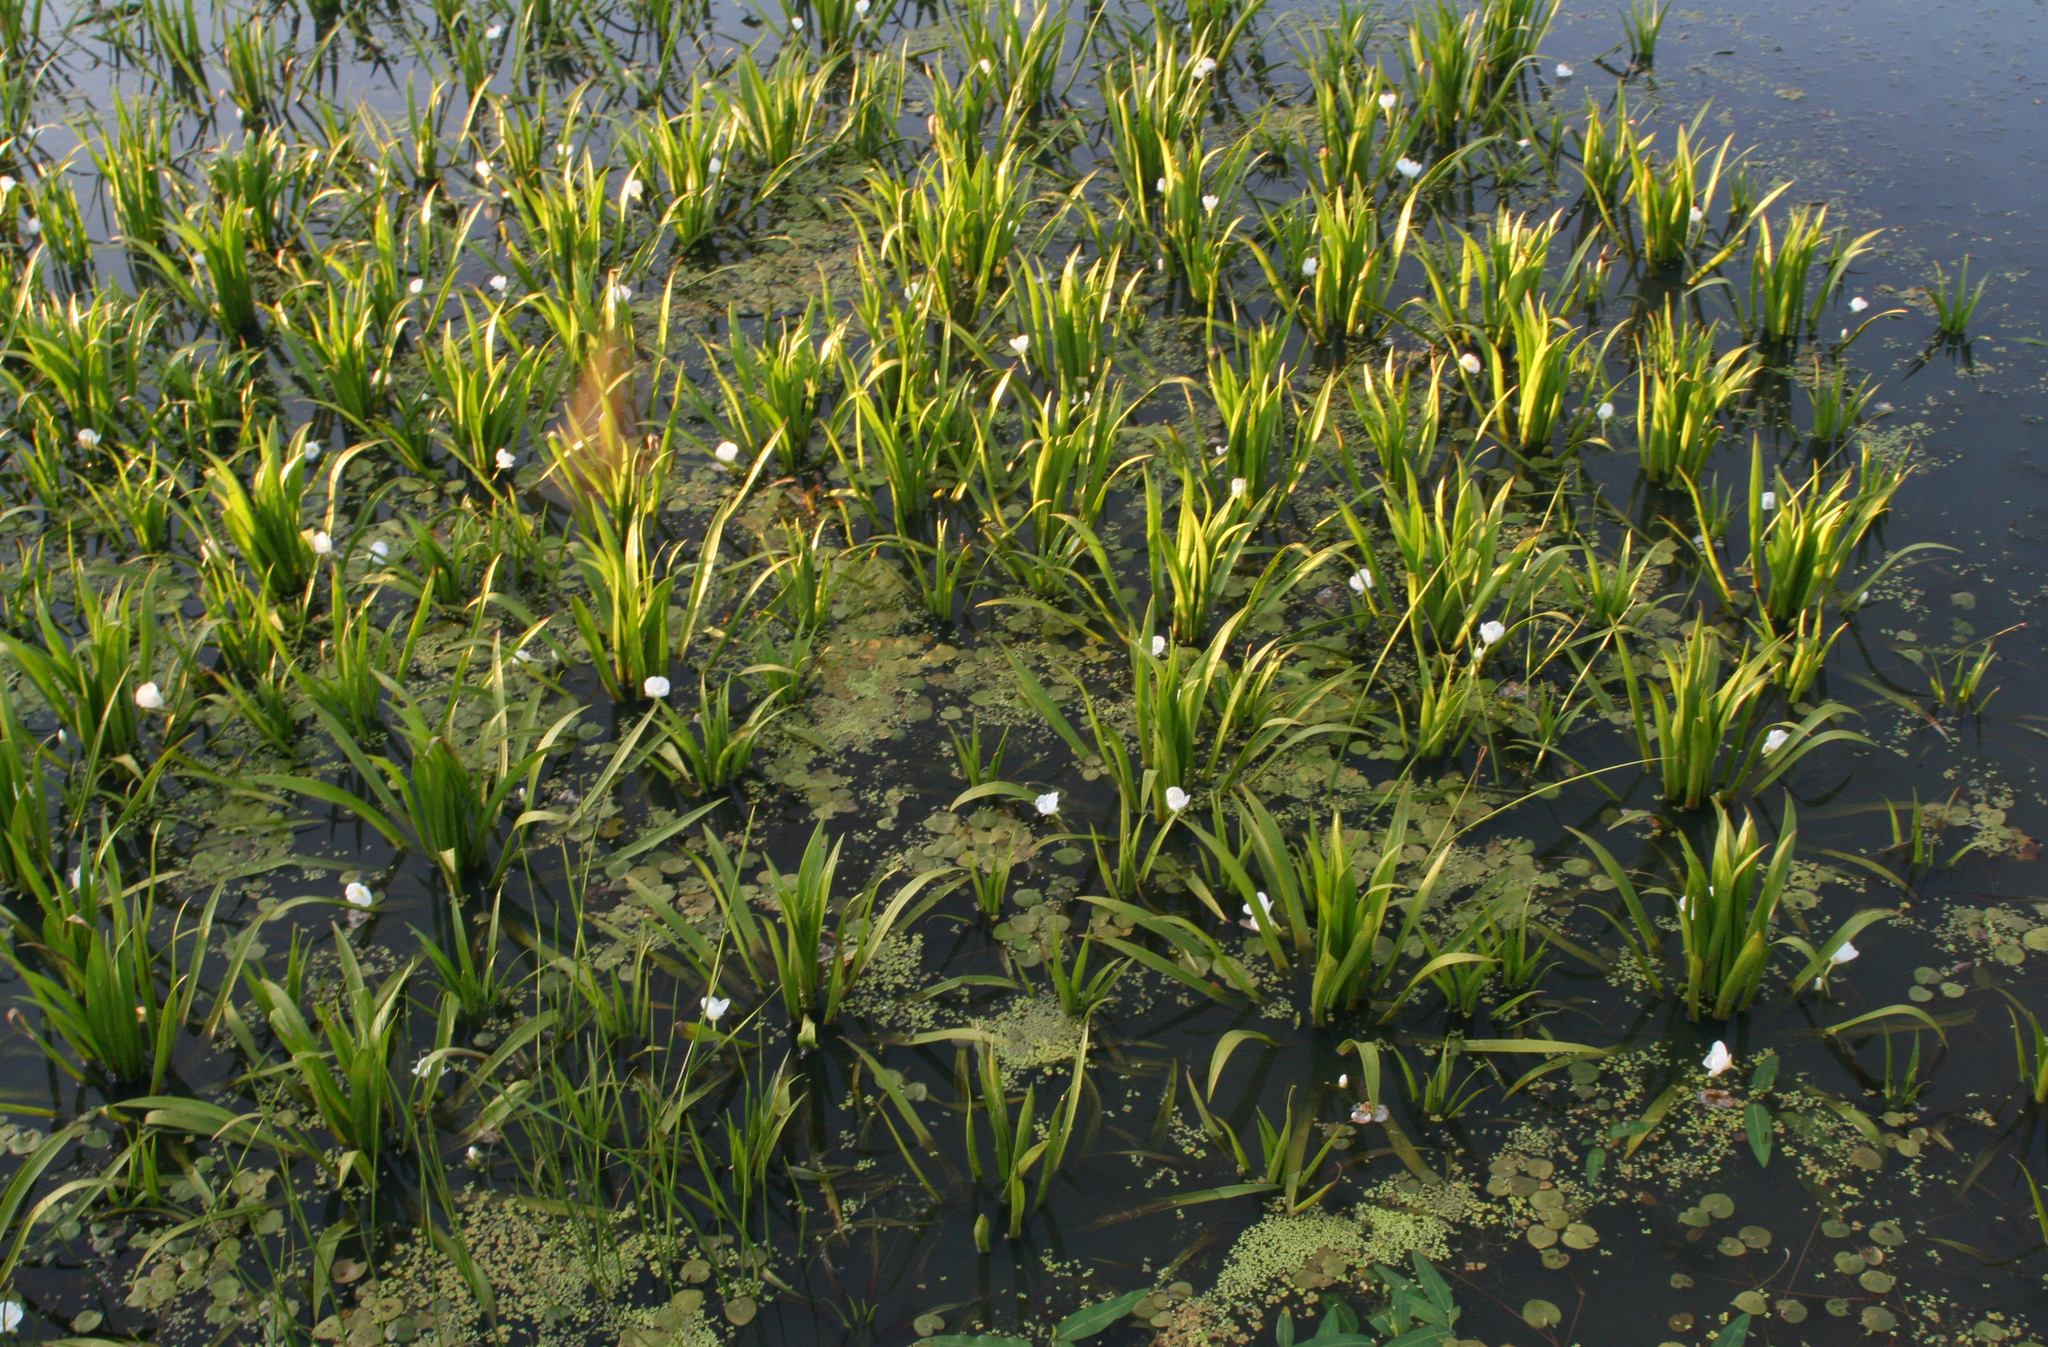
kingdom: Plantae
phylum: Tracheophyta
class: Liliopsida
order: Alismatales
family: Hydrocharitaceae
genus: Stratiotes
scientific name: Stratiotes aloides
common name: Water-soldier
